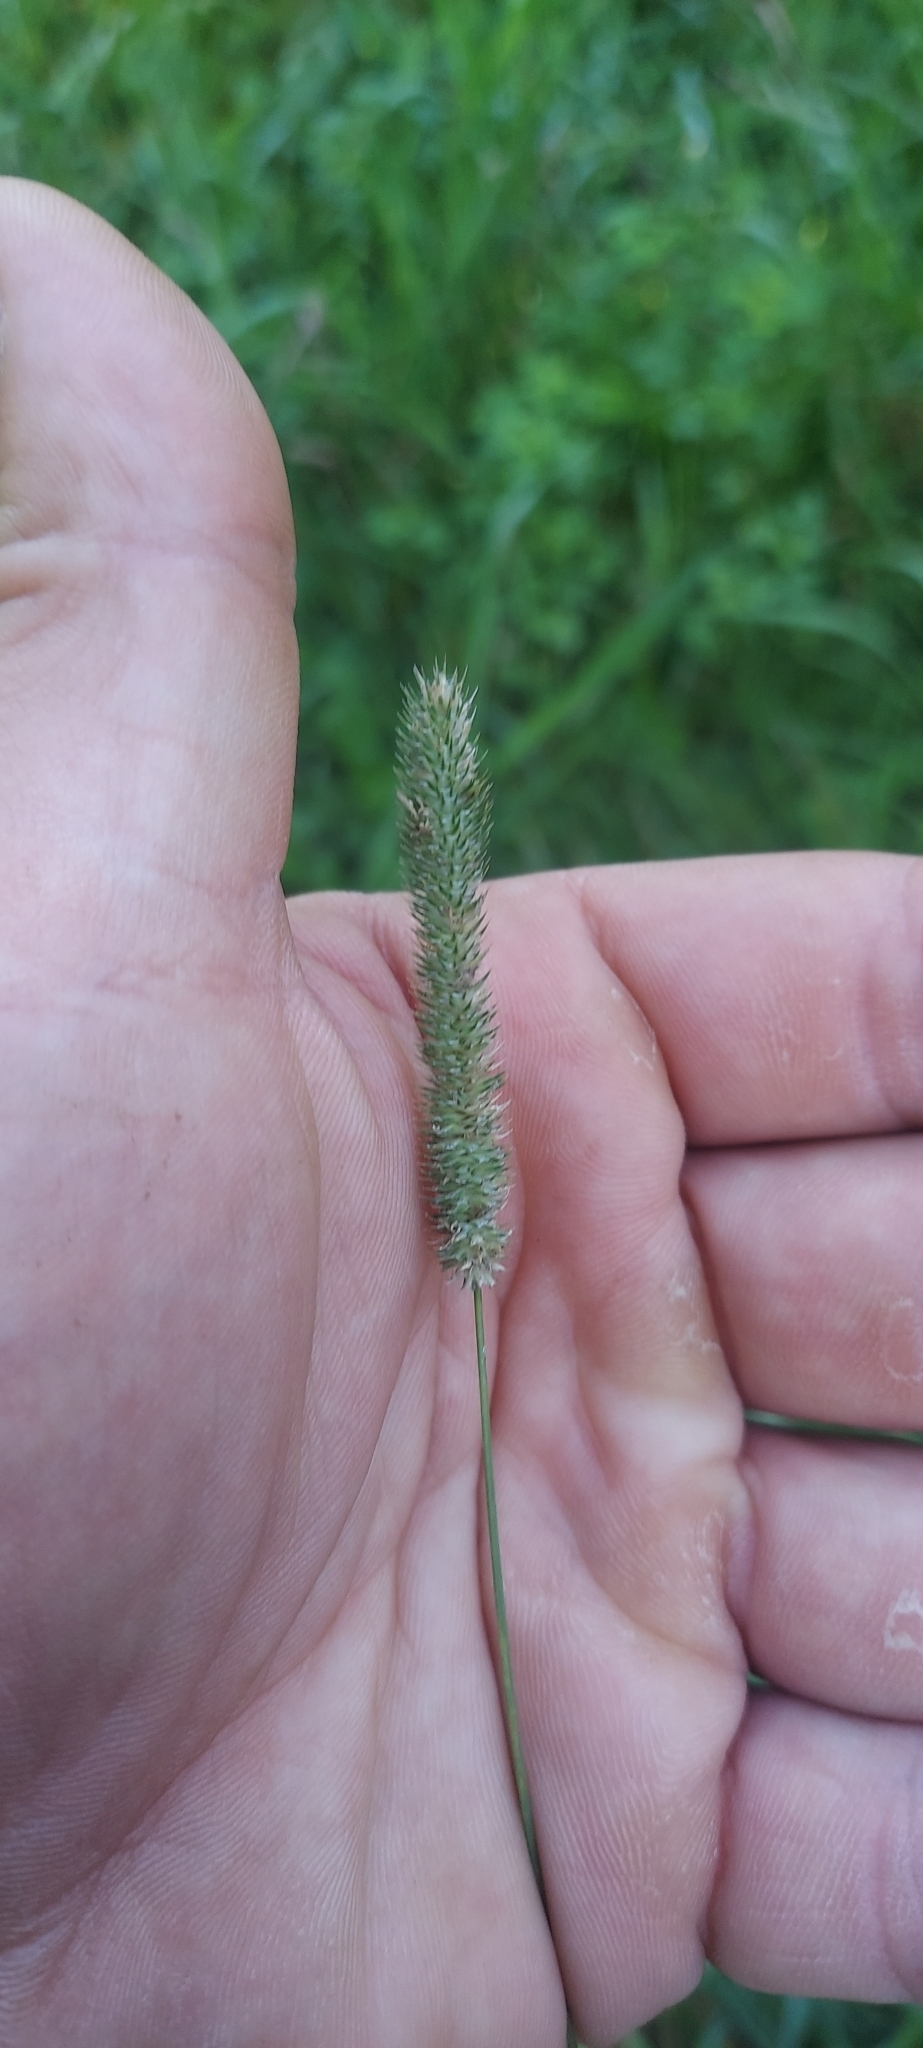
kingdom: Plantae
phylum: Tracheophyta
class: Liliopsida
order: Poales
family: Poaceae
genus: Phleum
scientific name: Phleum pratense
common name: Timothy grass
